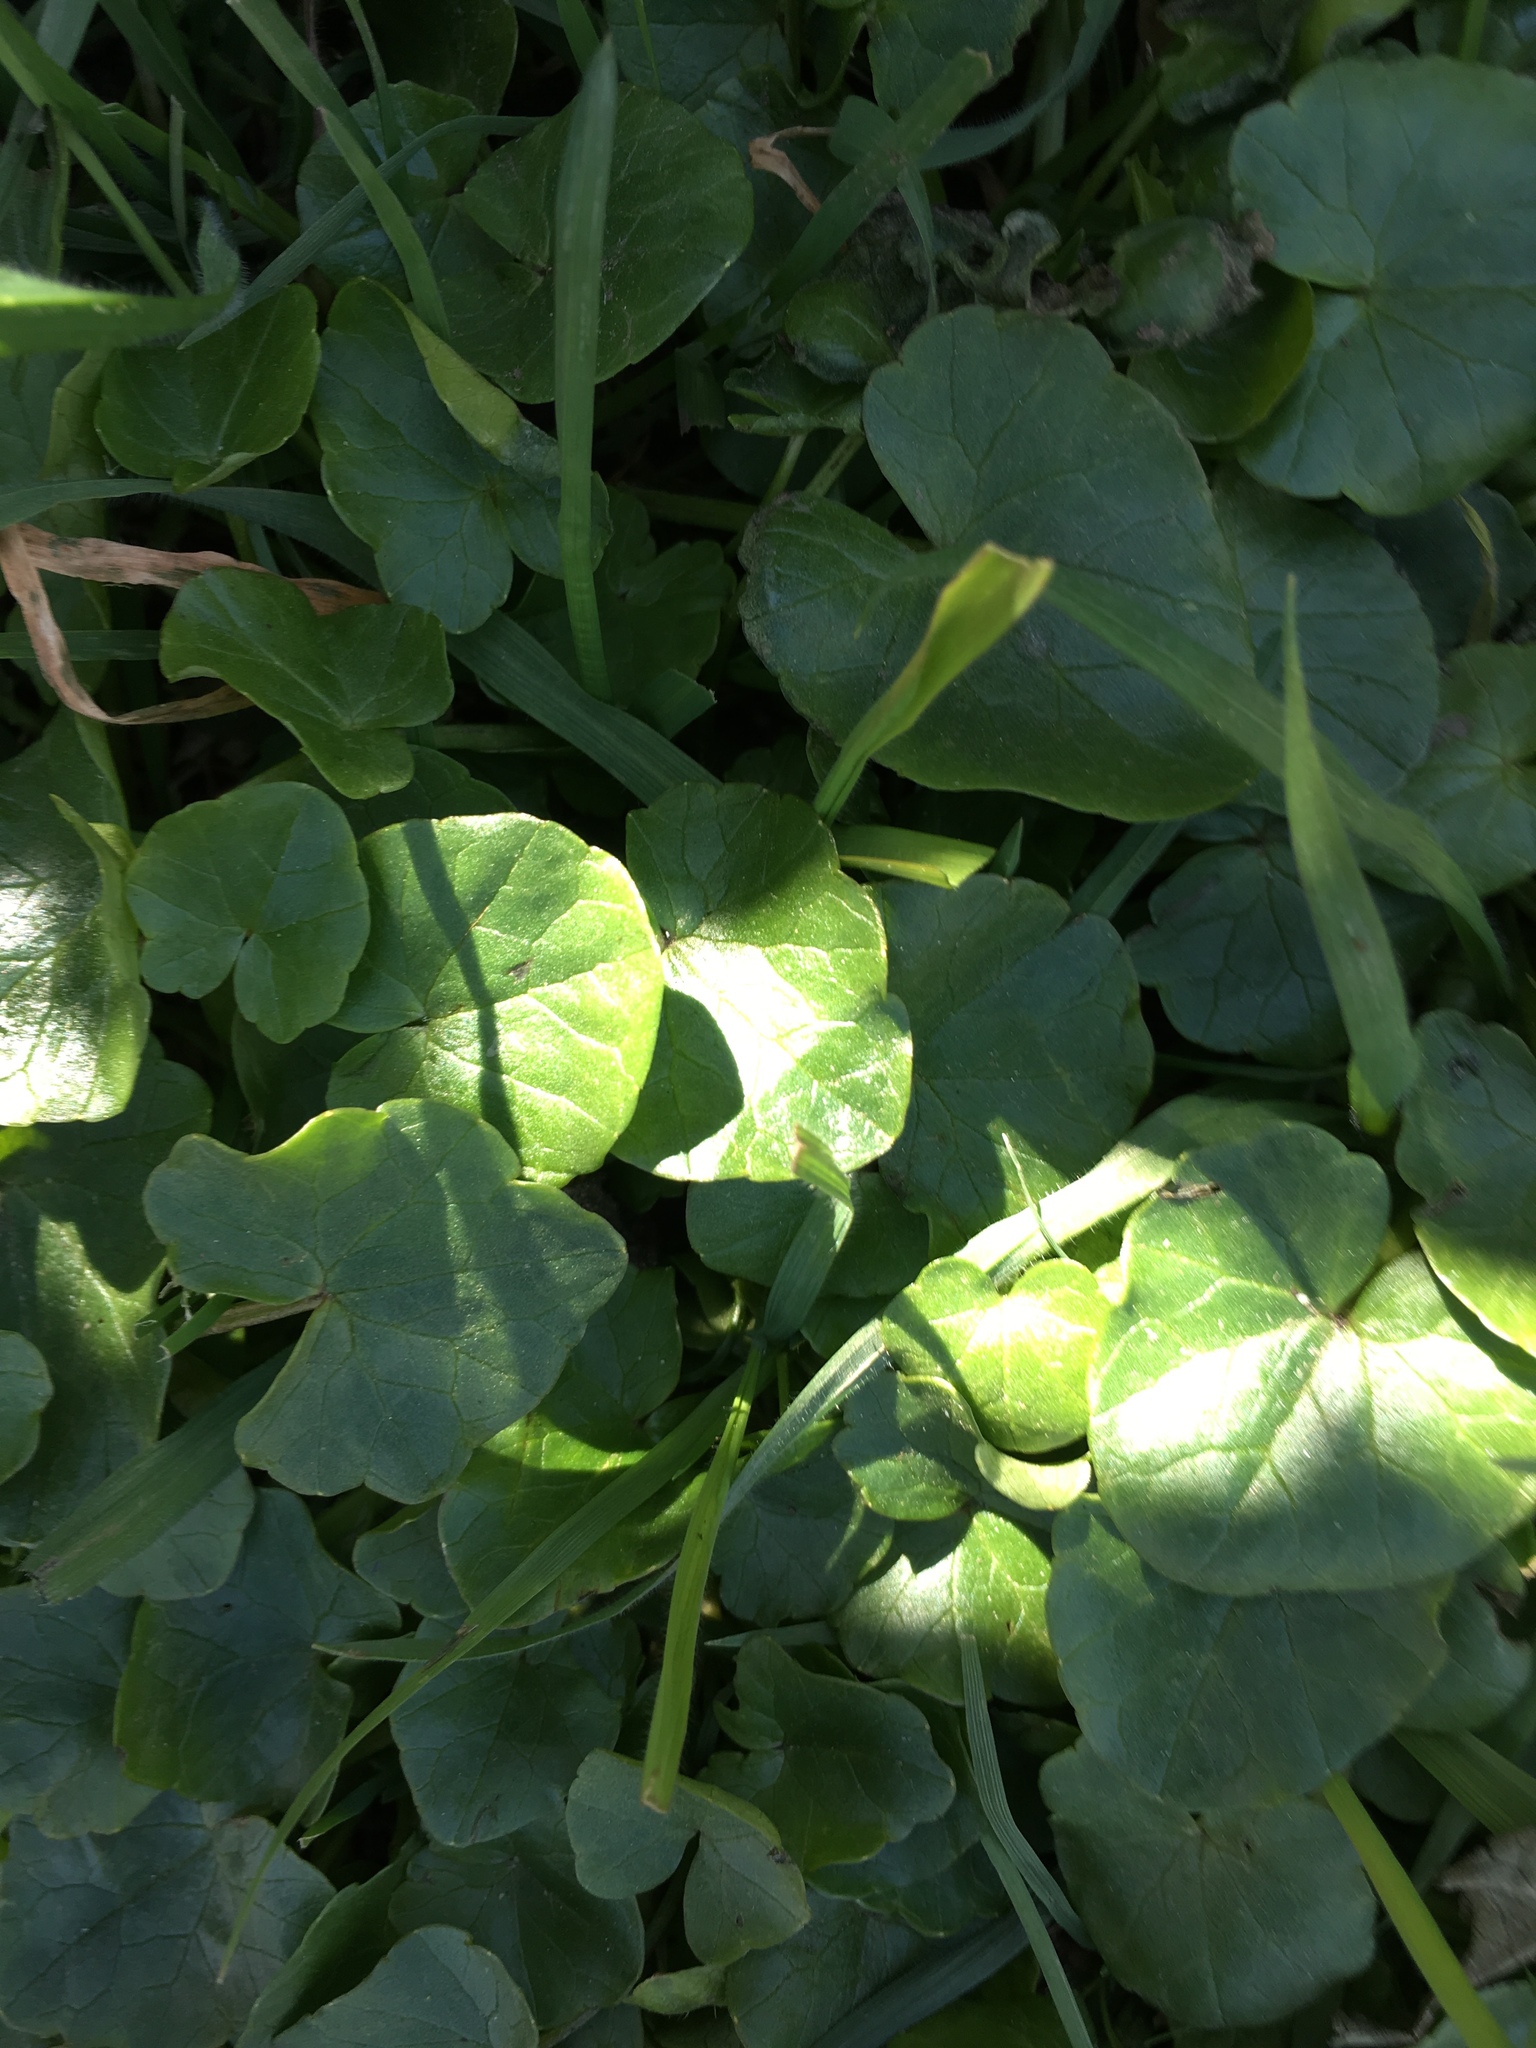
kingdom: Plantae
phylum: Tracheophyta
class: Magnoliopsida
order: Ranunculales
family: Ranunculaceae
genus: Ficaria
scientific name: Ficaria verna
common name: Lesser celandine
